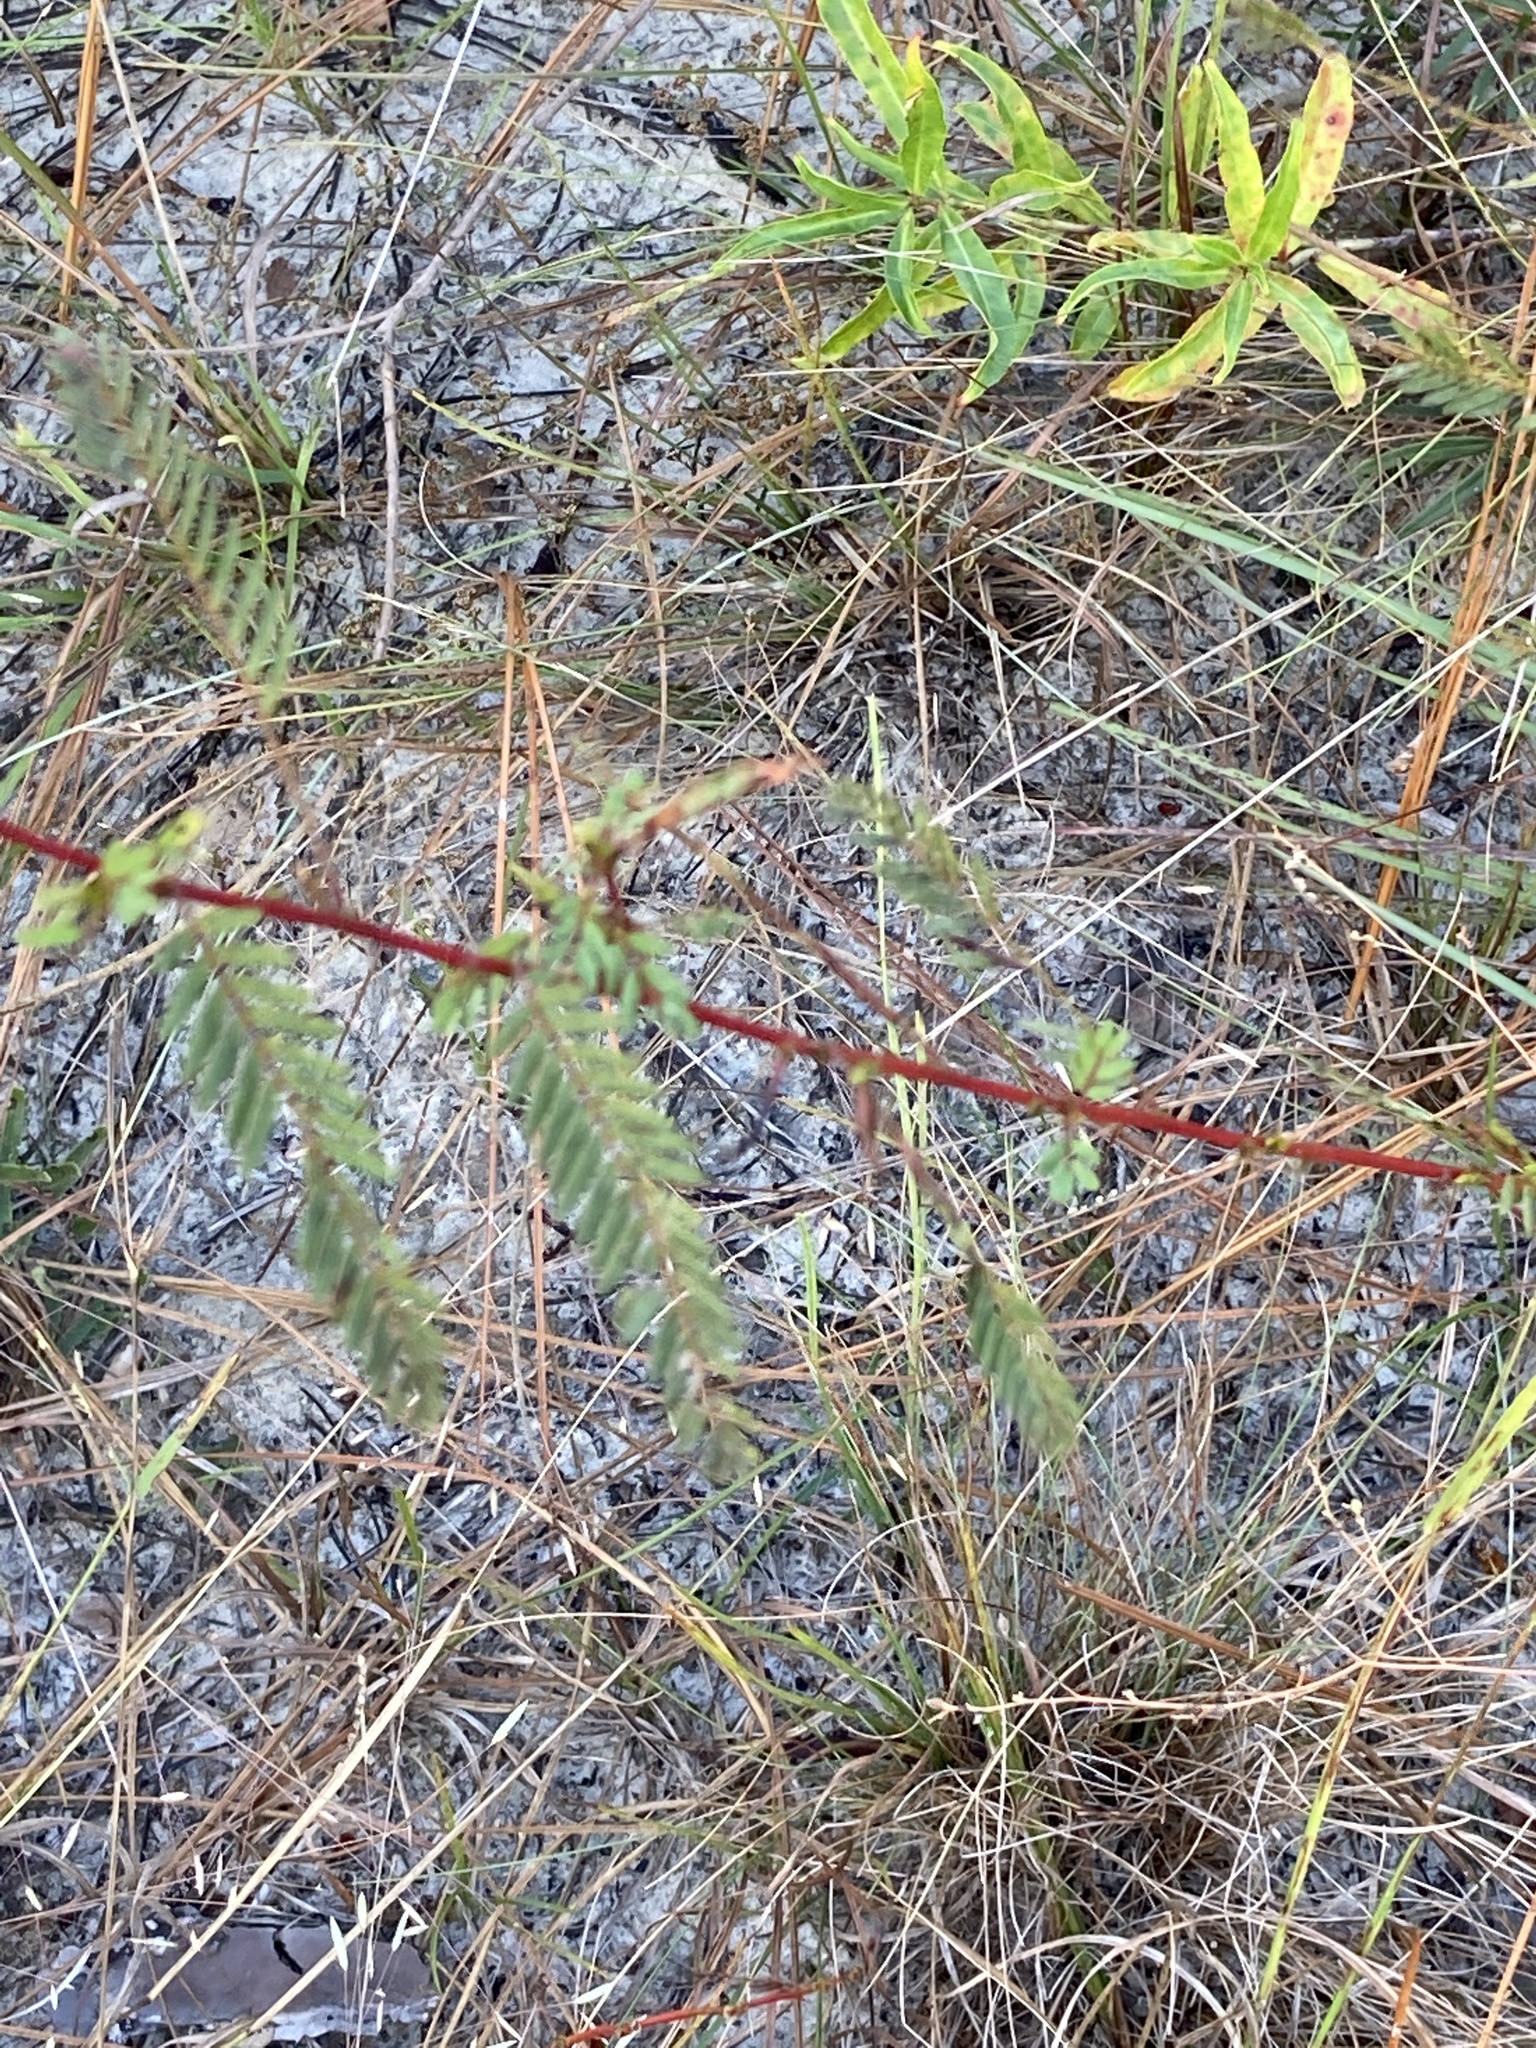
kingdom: Plantae
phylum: Tracheophyta
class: Magnoliopsida
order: Fabales
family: Fabaceae
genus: Chamaecrista
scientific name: Chamaecrista fasciculata
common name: Golden cassia
